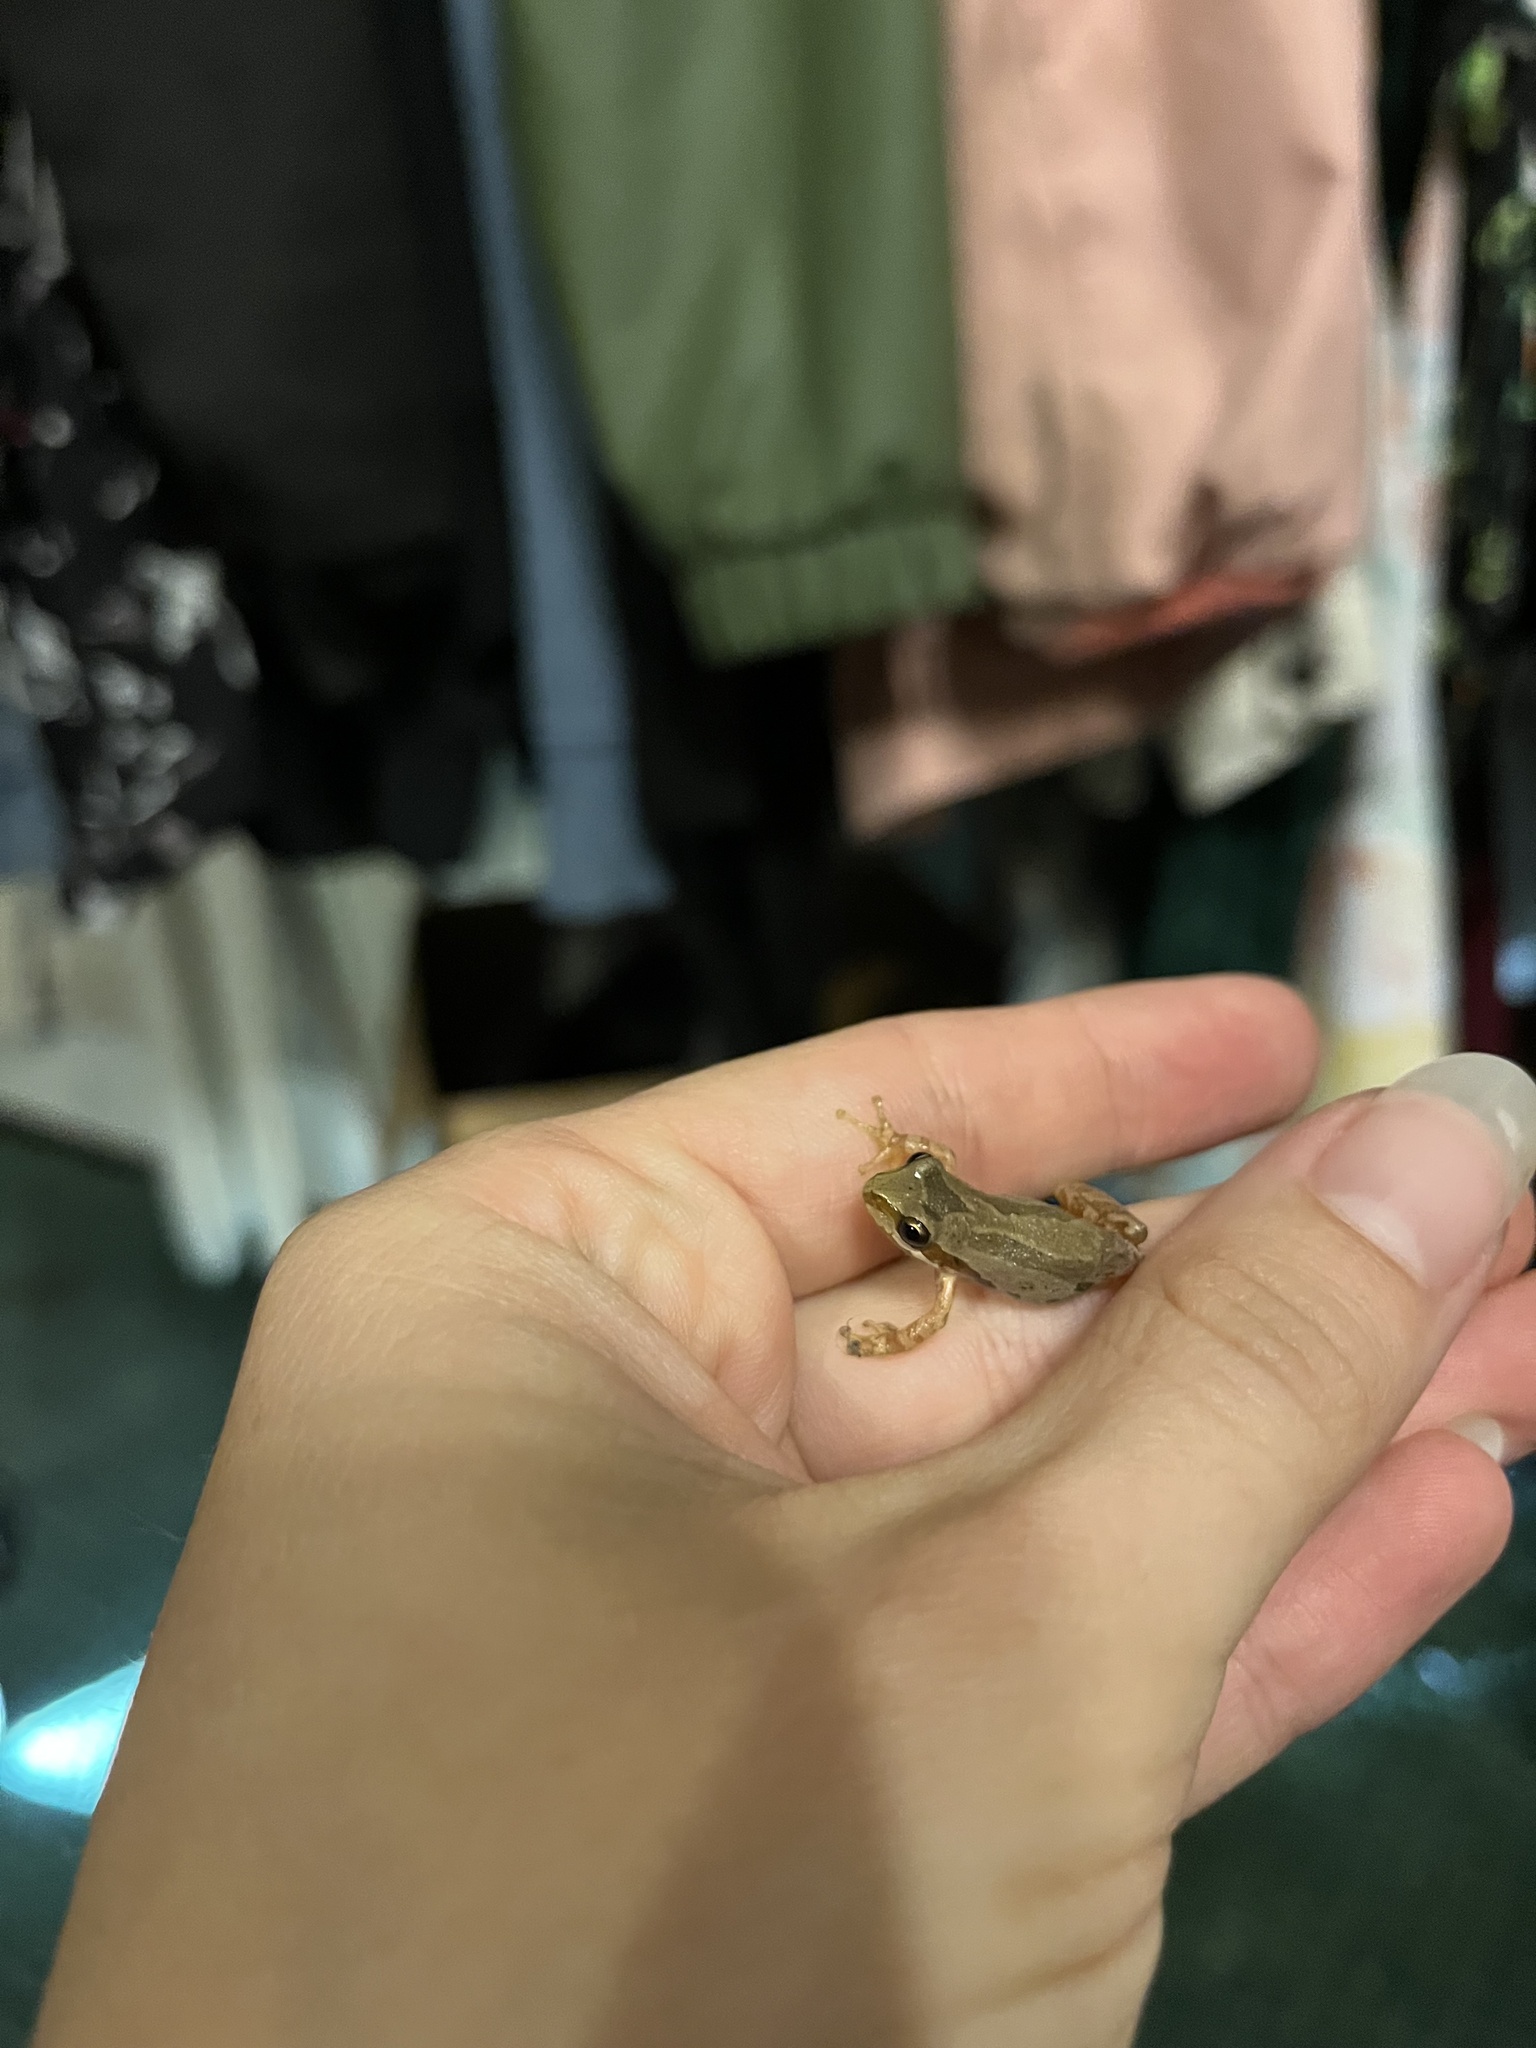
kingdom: Animalia
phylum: Chordata
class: Amphibia
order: Anura
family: Hylidae
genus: Pseudacris
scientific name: Pseudacris regilla
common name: Pacific chorus frog
